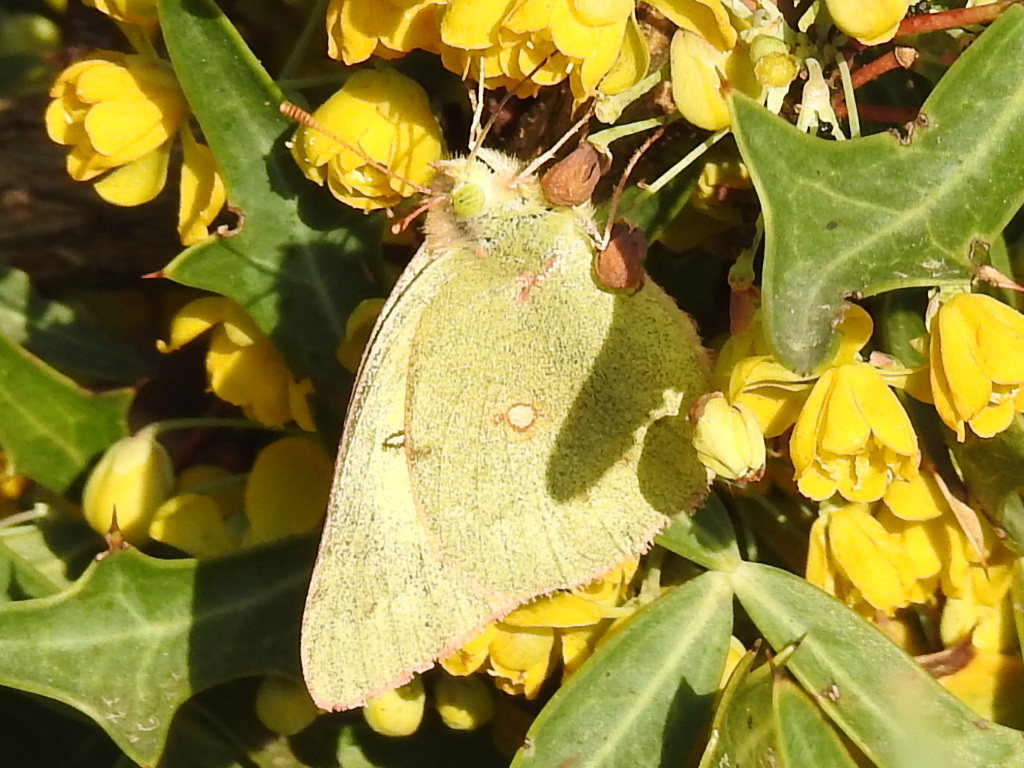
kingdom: Animalia
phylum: Arthropoda
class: Insecta
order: Lepidoptera
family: Pieridae
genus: Colias
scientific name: Colias eurytheme
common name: Alfalfa butterfly
